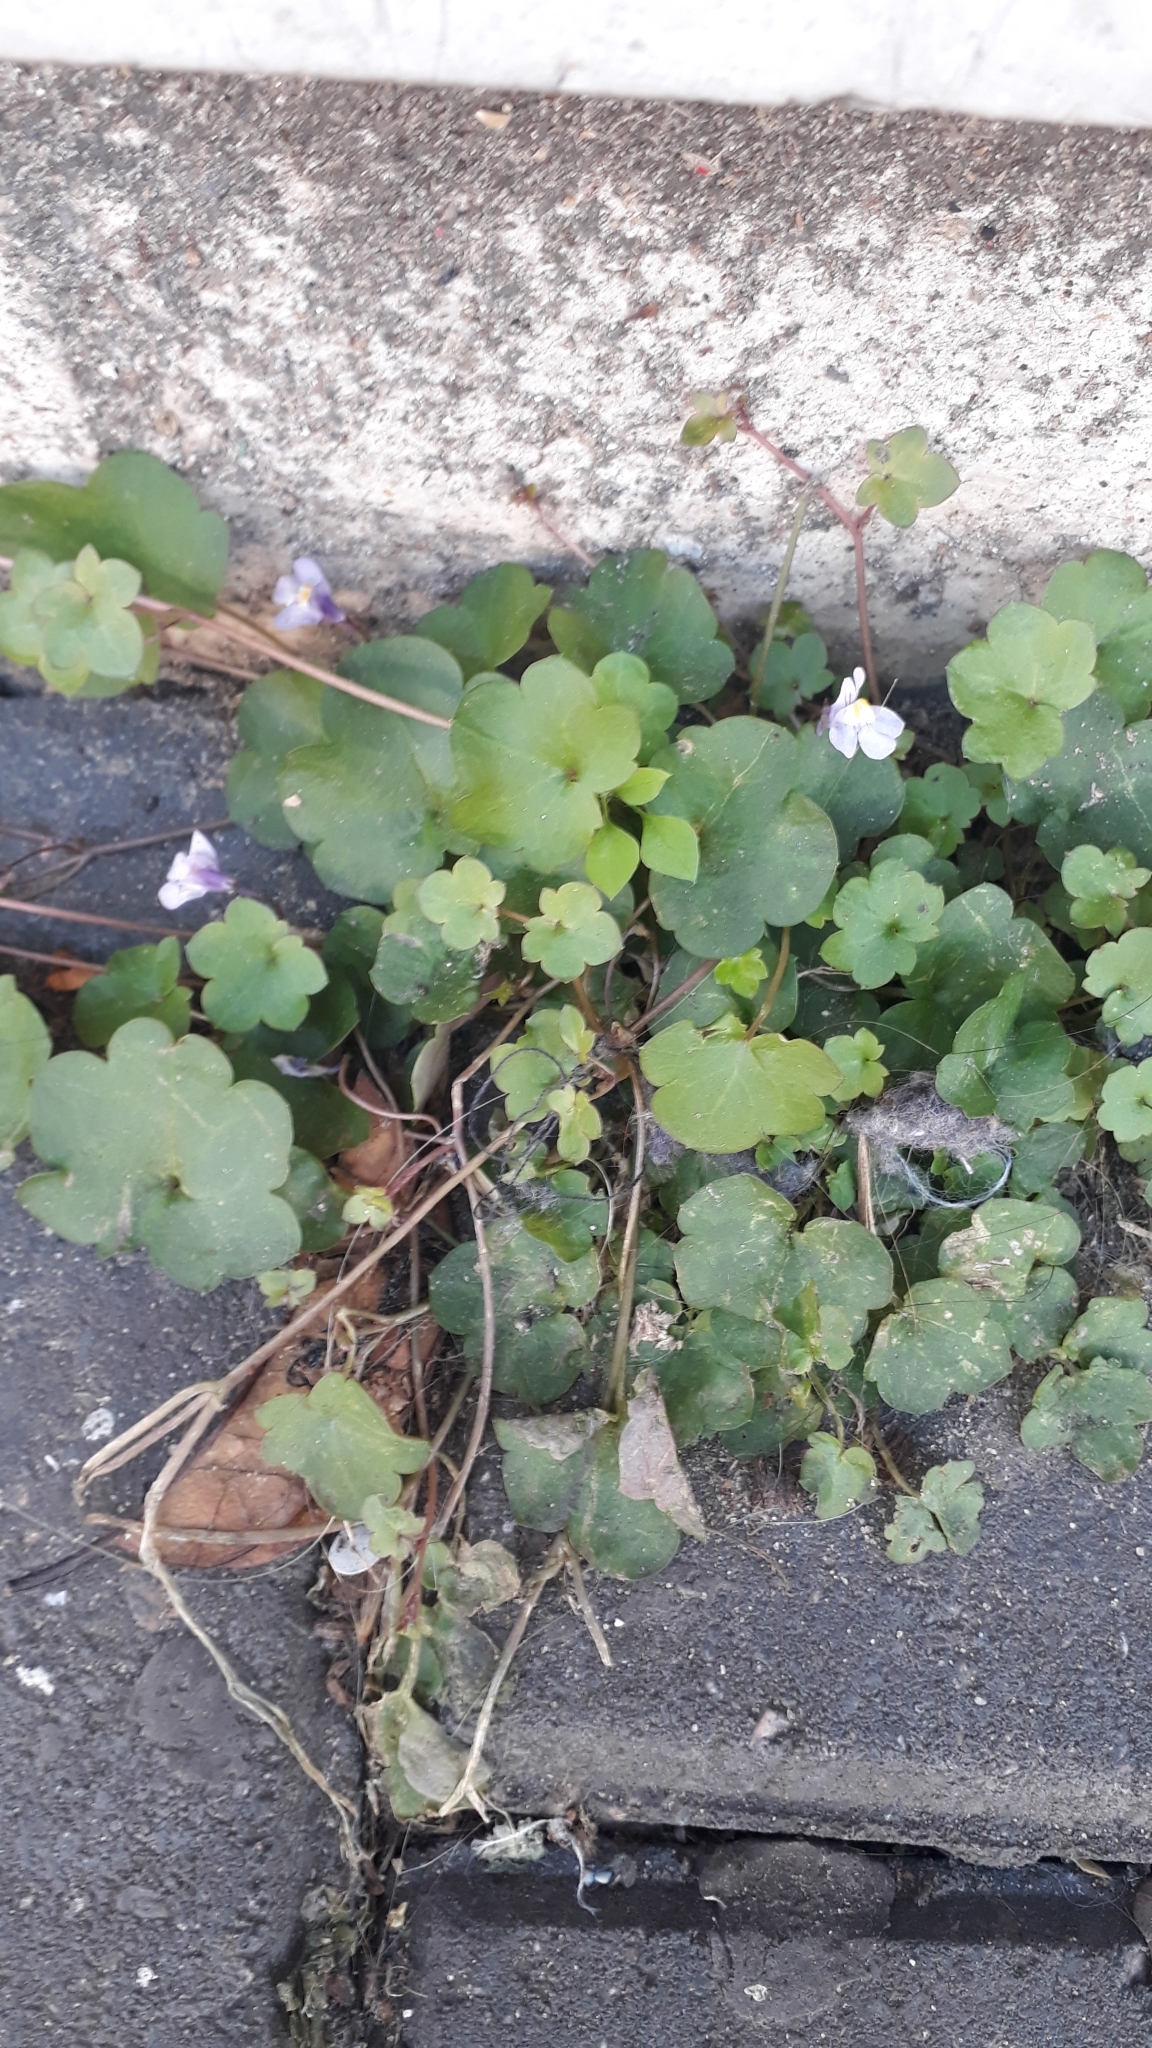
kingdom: Plantae
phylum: Tracheophyta
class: Magnoliopsida
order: Lamiales
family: Plantaginaceae
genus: Cymbalaria
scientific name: Cymbalaria muralis
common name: Ivy-leaved toadflax
